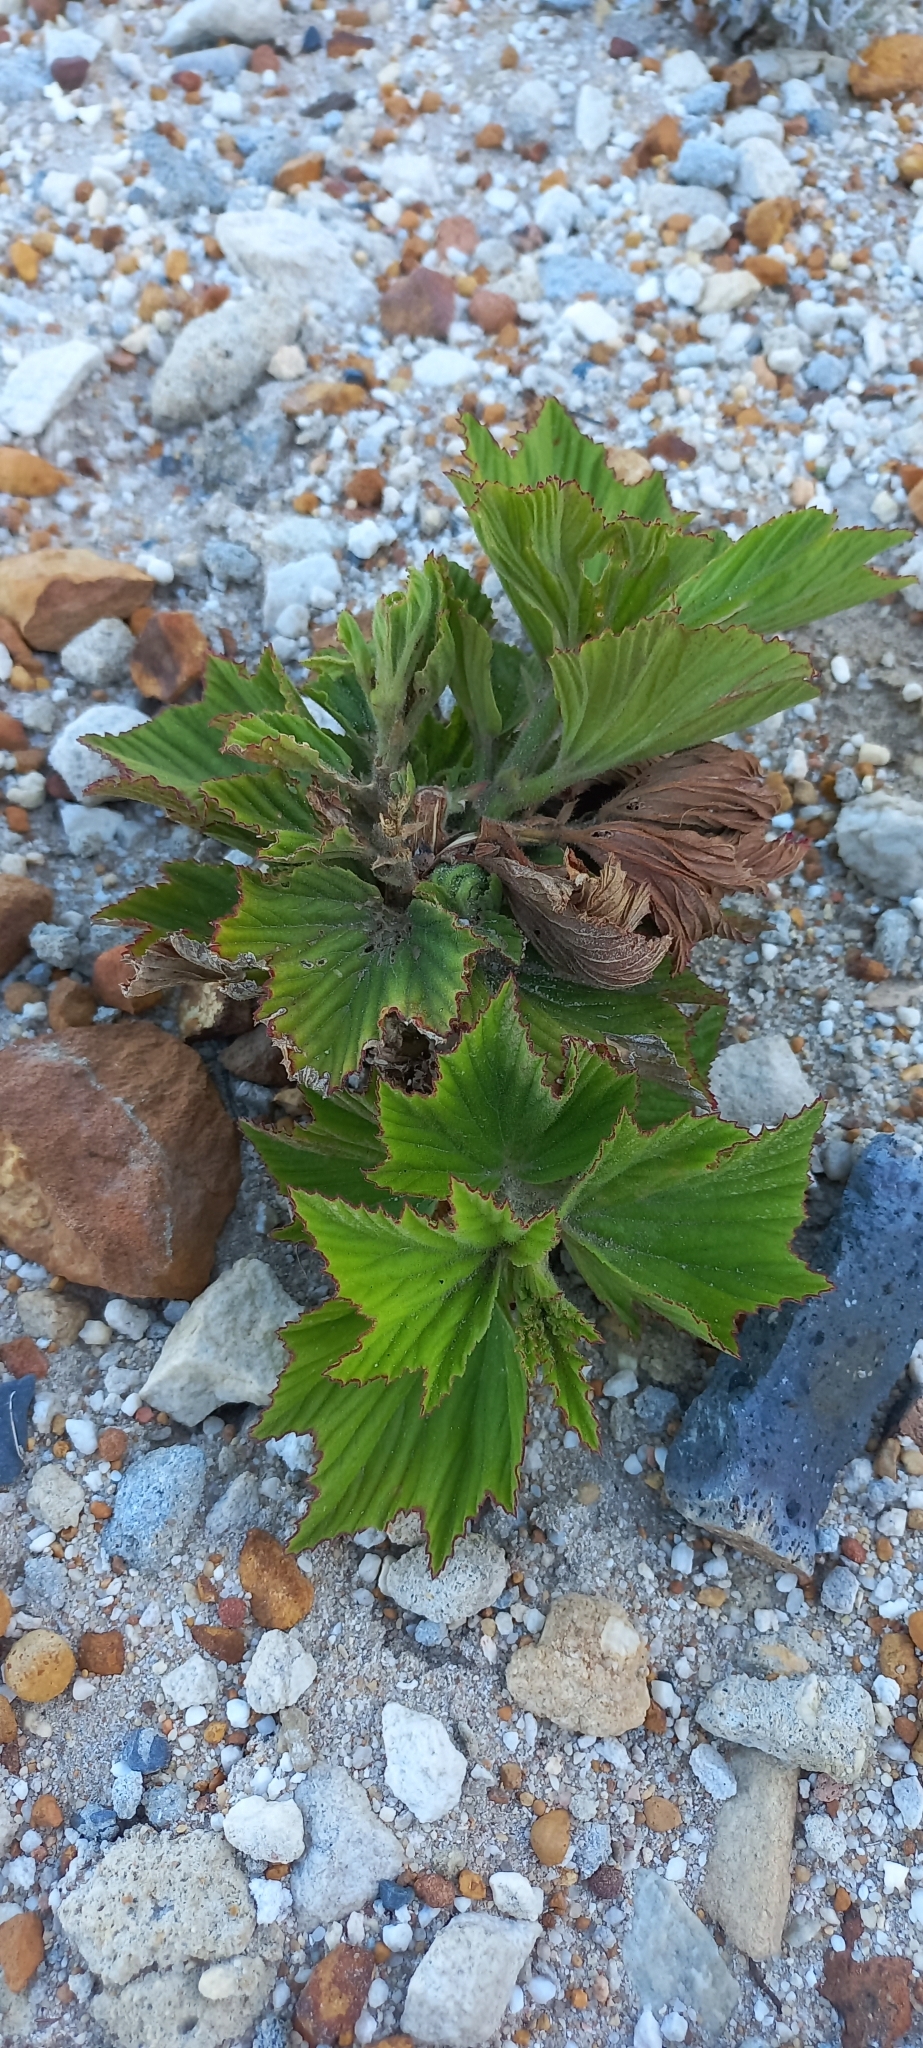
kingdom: Plantae
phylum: Tracheophyta
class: Magnoliopsida
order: Geraniales
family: Geraniaceae
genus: Pelargonium
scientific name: Pelargonium cucullatum
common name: Tree pelargonium
